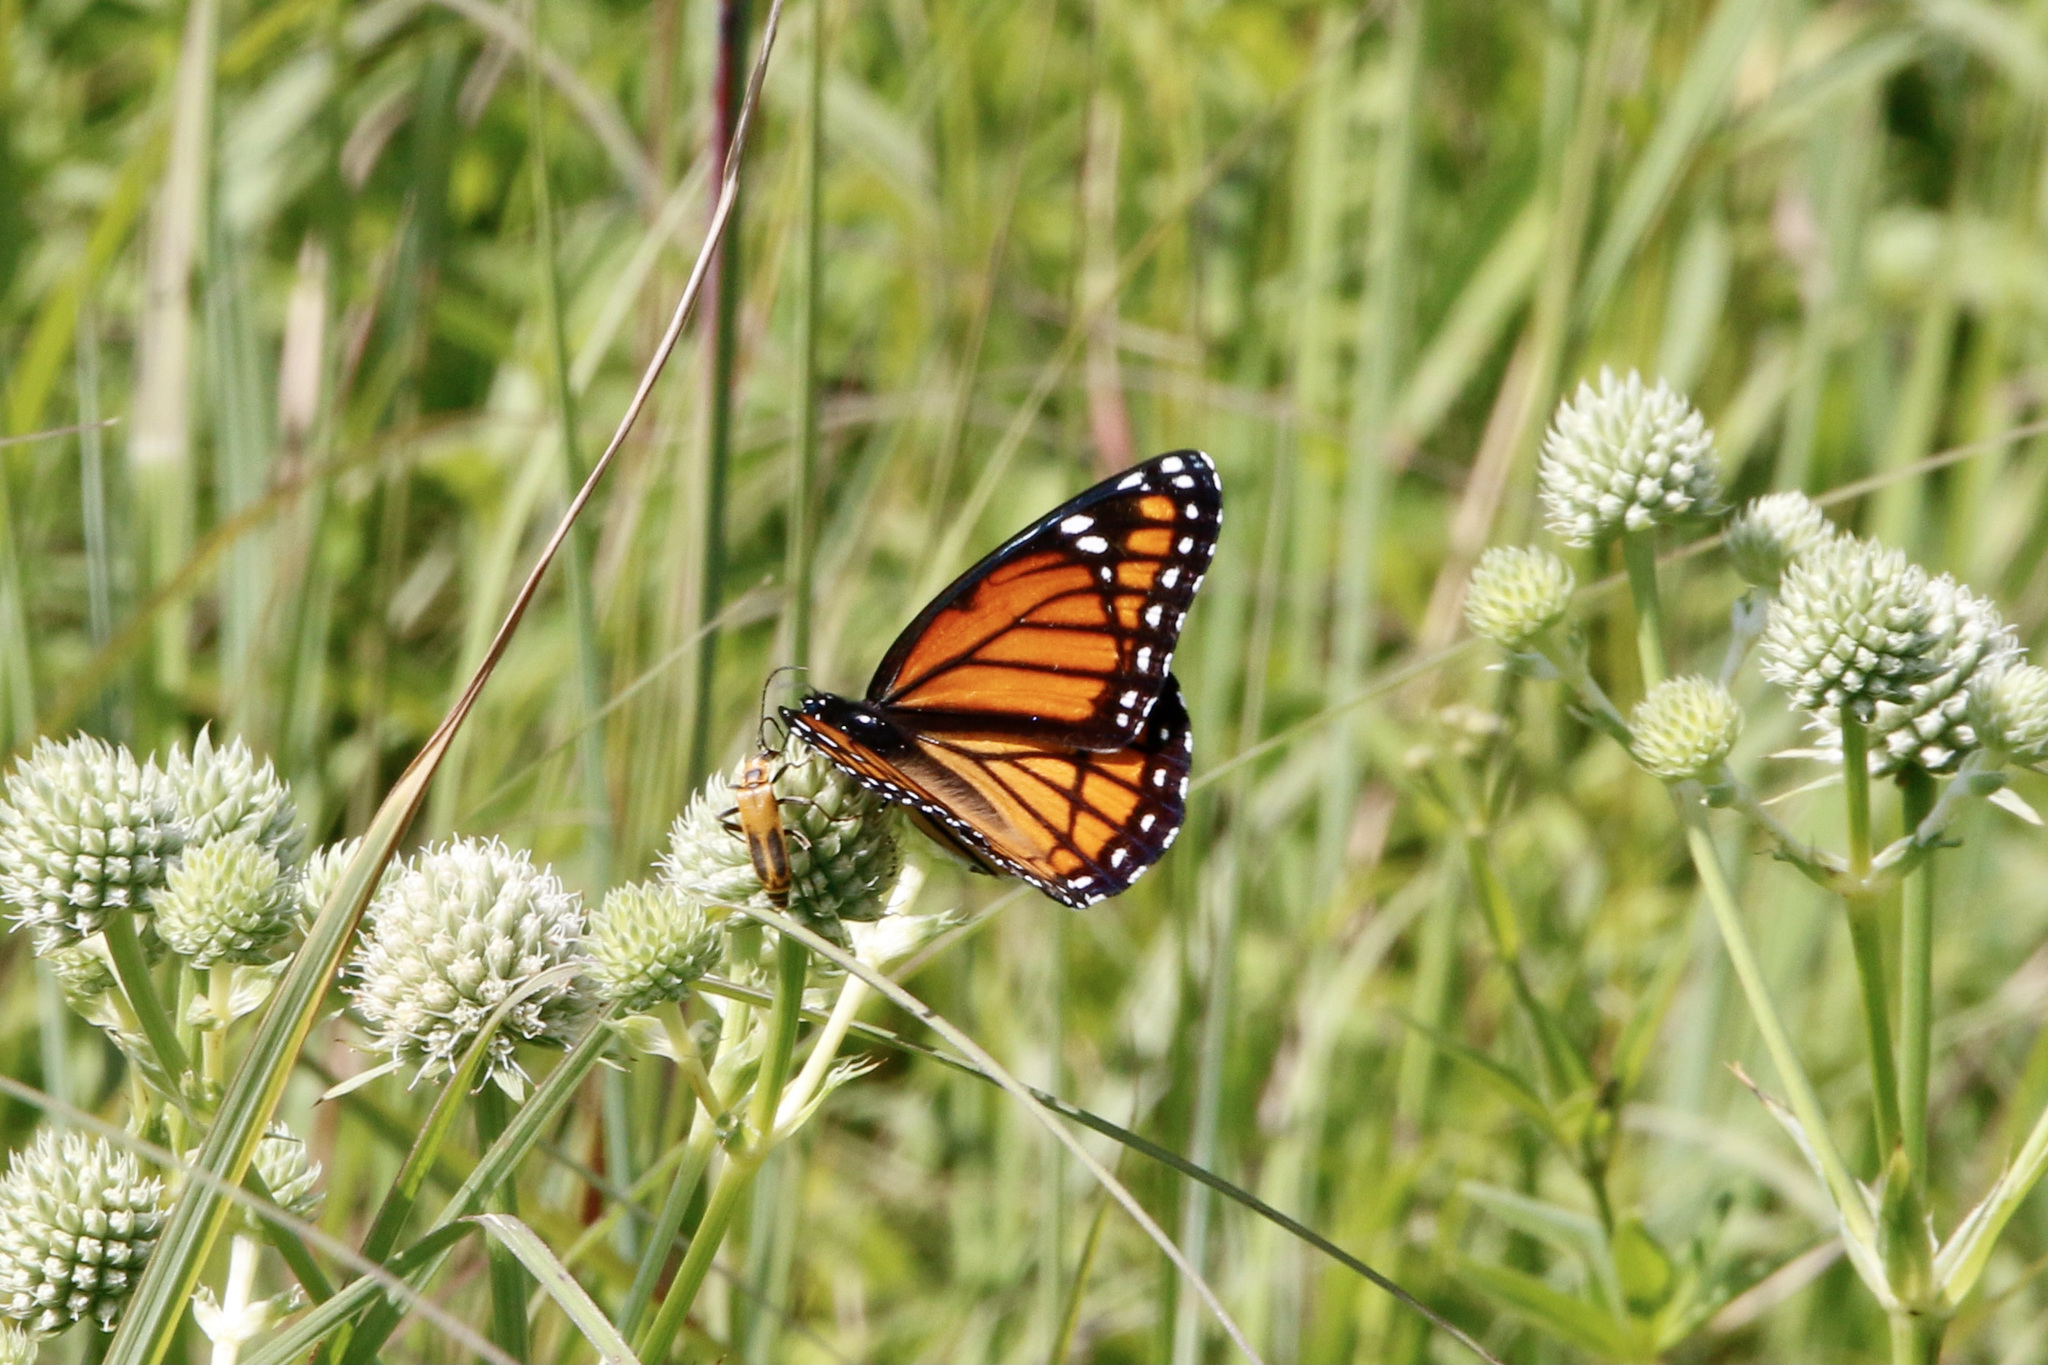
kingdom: Animalia
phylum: Arthropoda
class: Insecta
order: Lepidoptera
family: Nymphalidae
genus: Limenitis
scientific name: Limenitis archippus
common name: Viceroy
